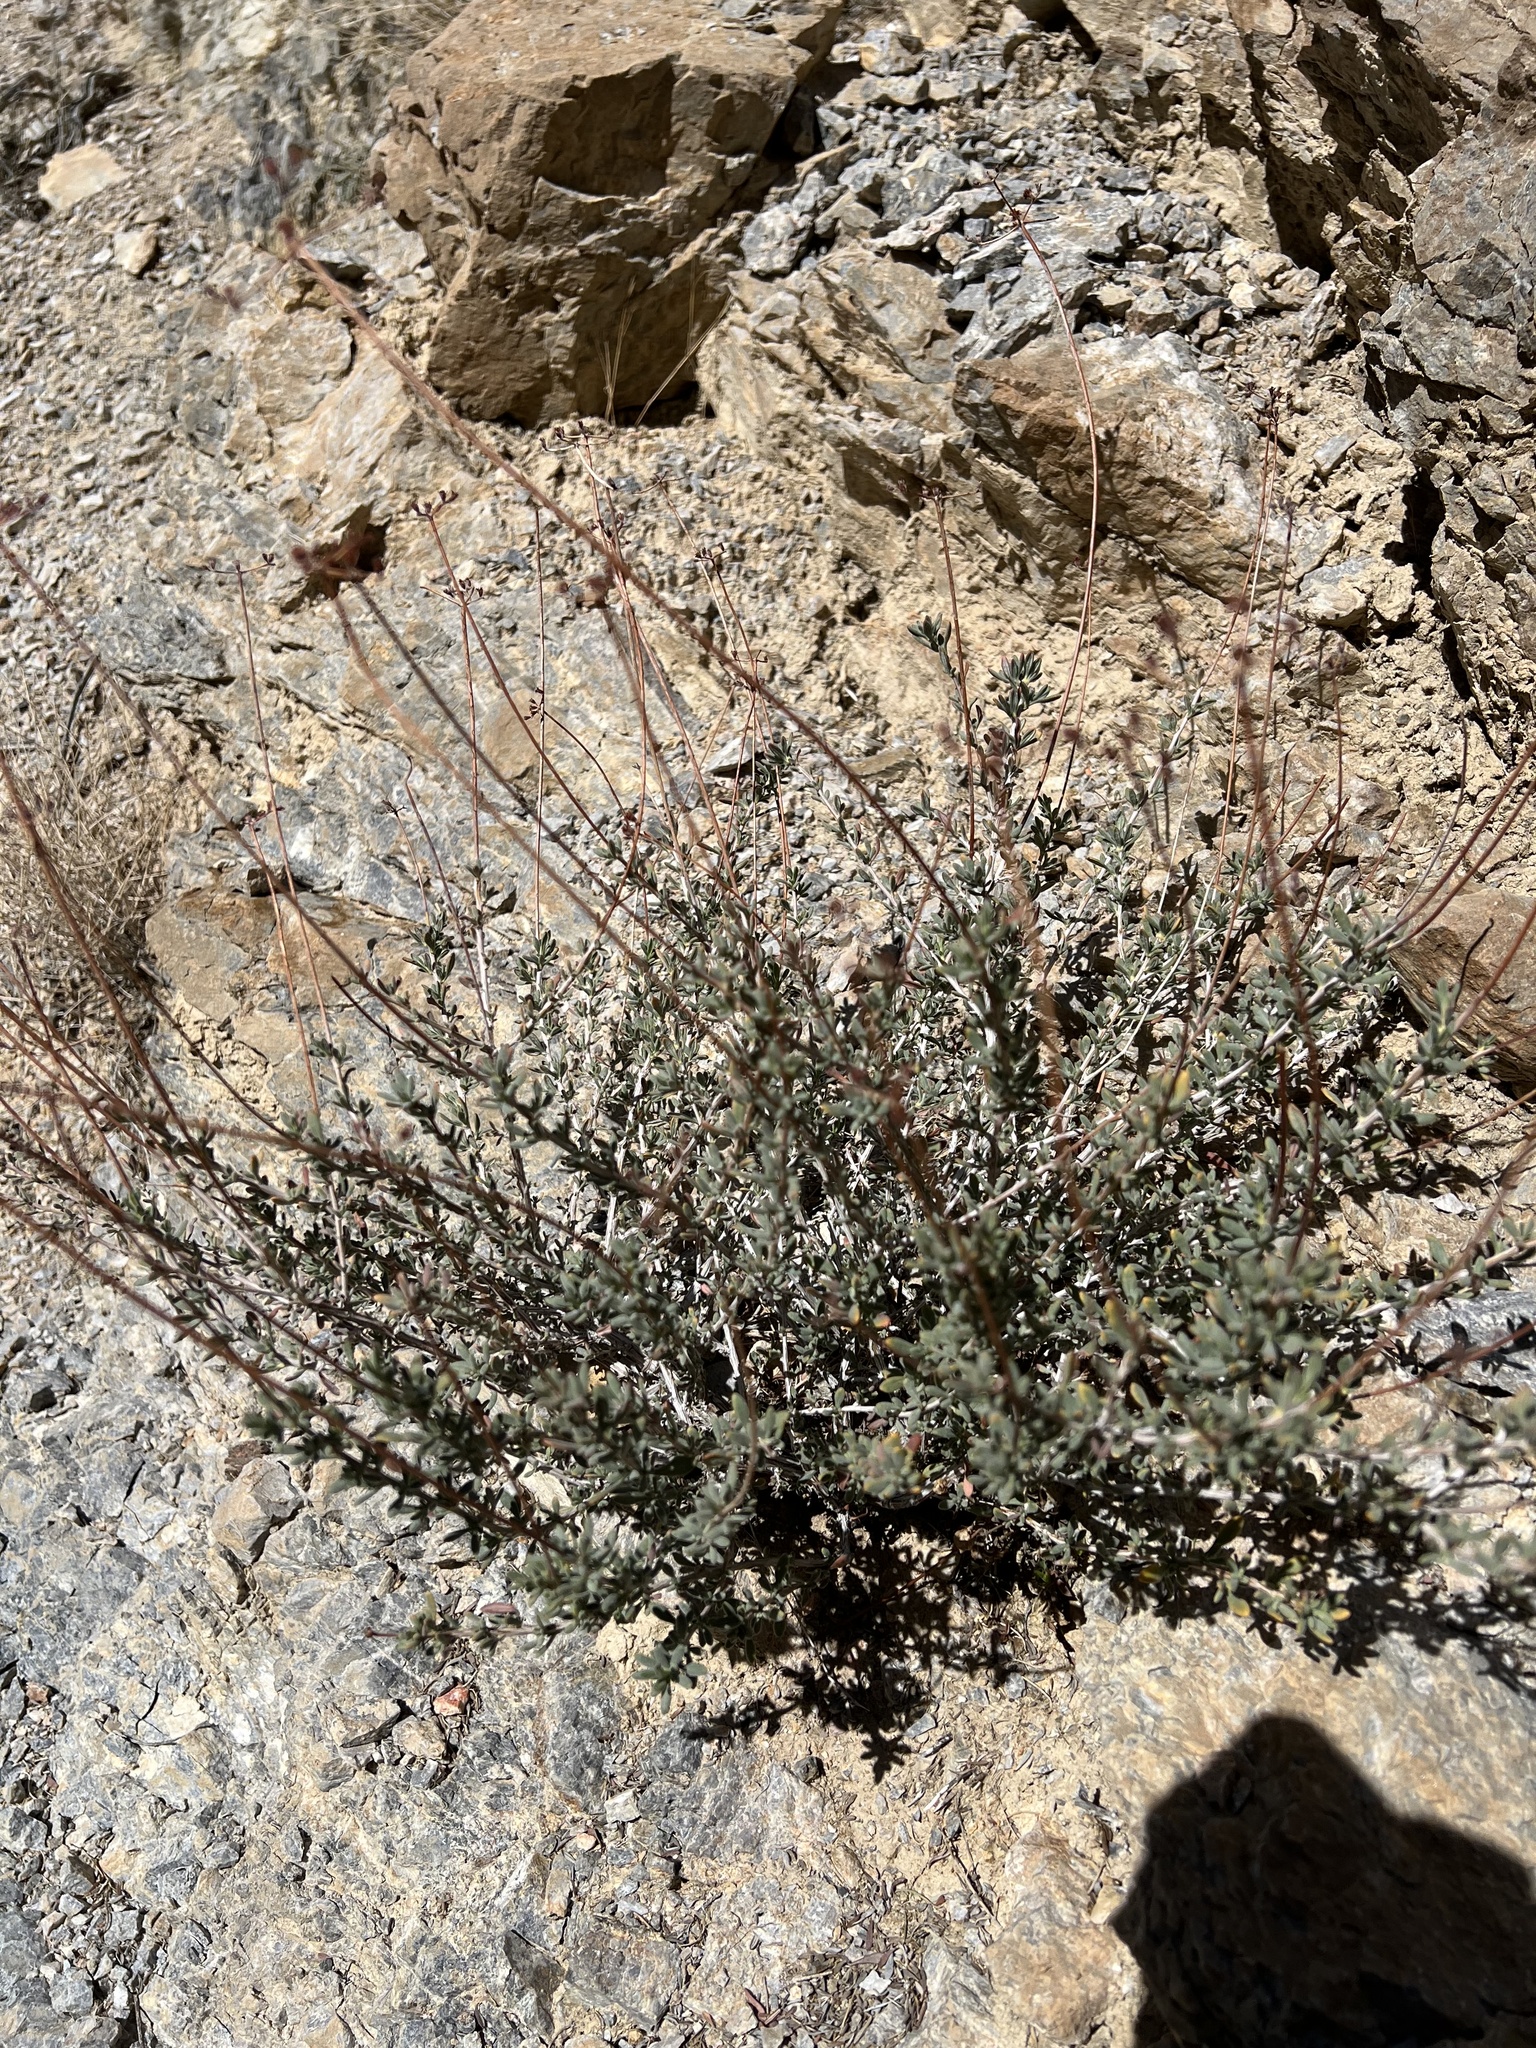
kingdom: Plantae
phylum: Tracheophyta
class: Magnoliopsida
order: Caryophyllales
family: Polygonaceae
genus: Eriogonum
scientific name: Eriogonum fasciculatum
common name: California wild buckwheat
